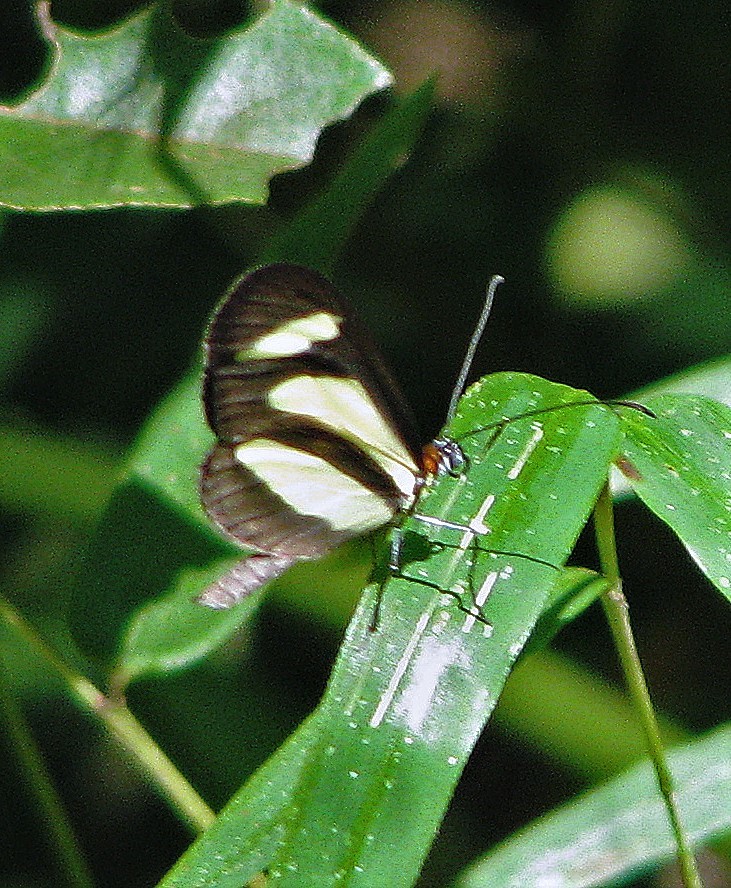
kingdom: Animalia
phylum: Arthropoda
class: Insecta
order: Lepidoptera
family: Nymphalidae
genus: Aeria
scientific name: Aeria olena
